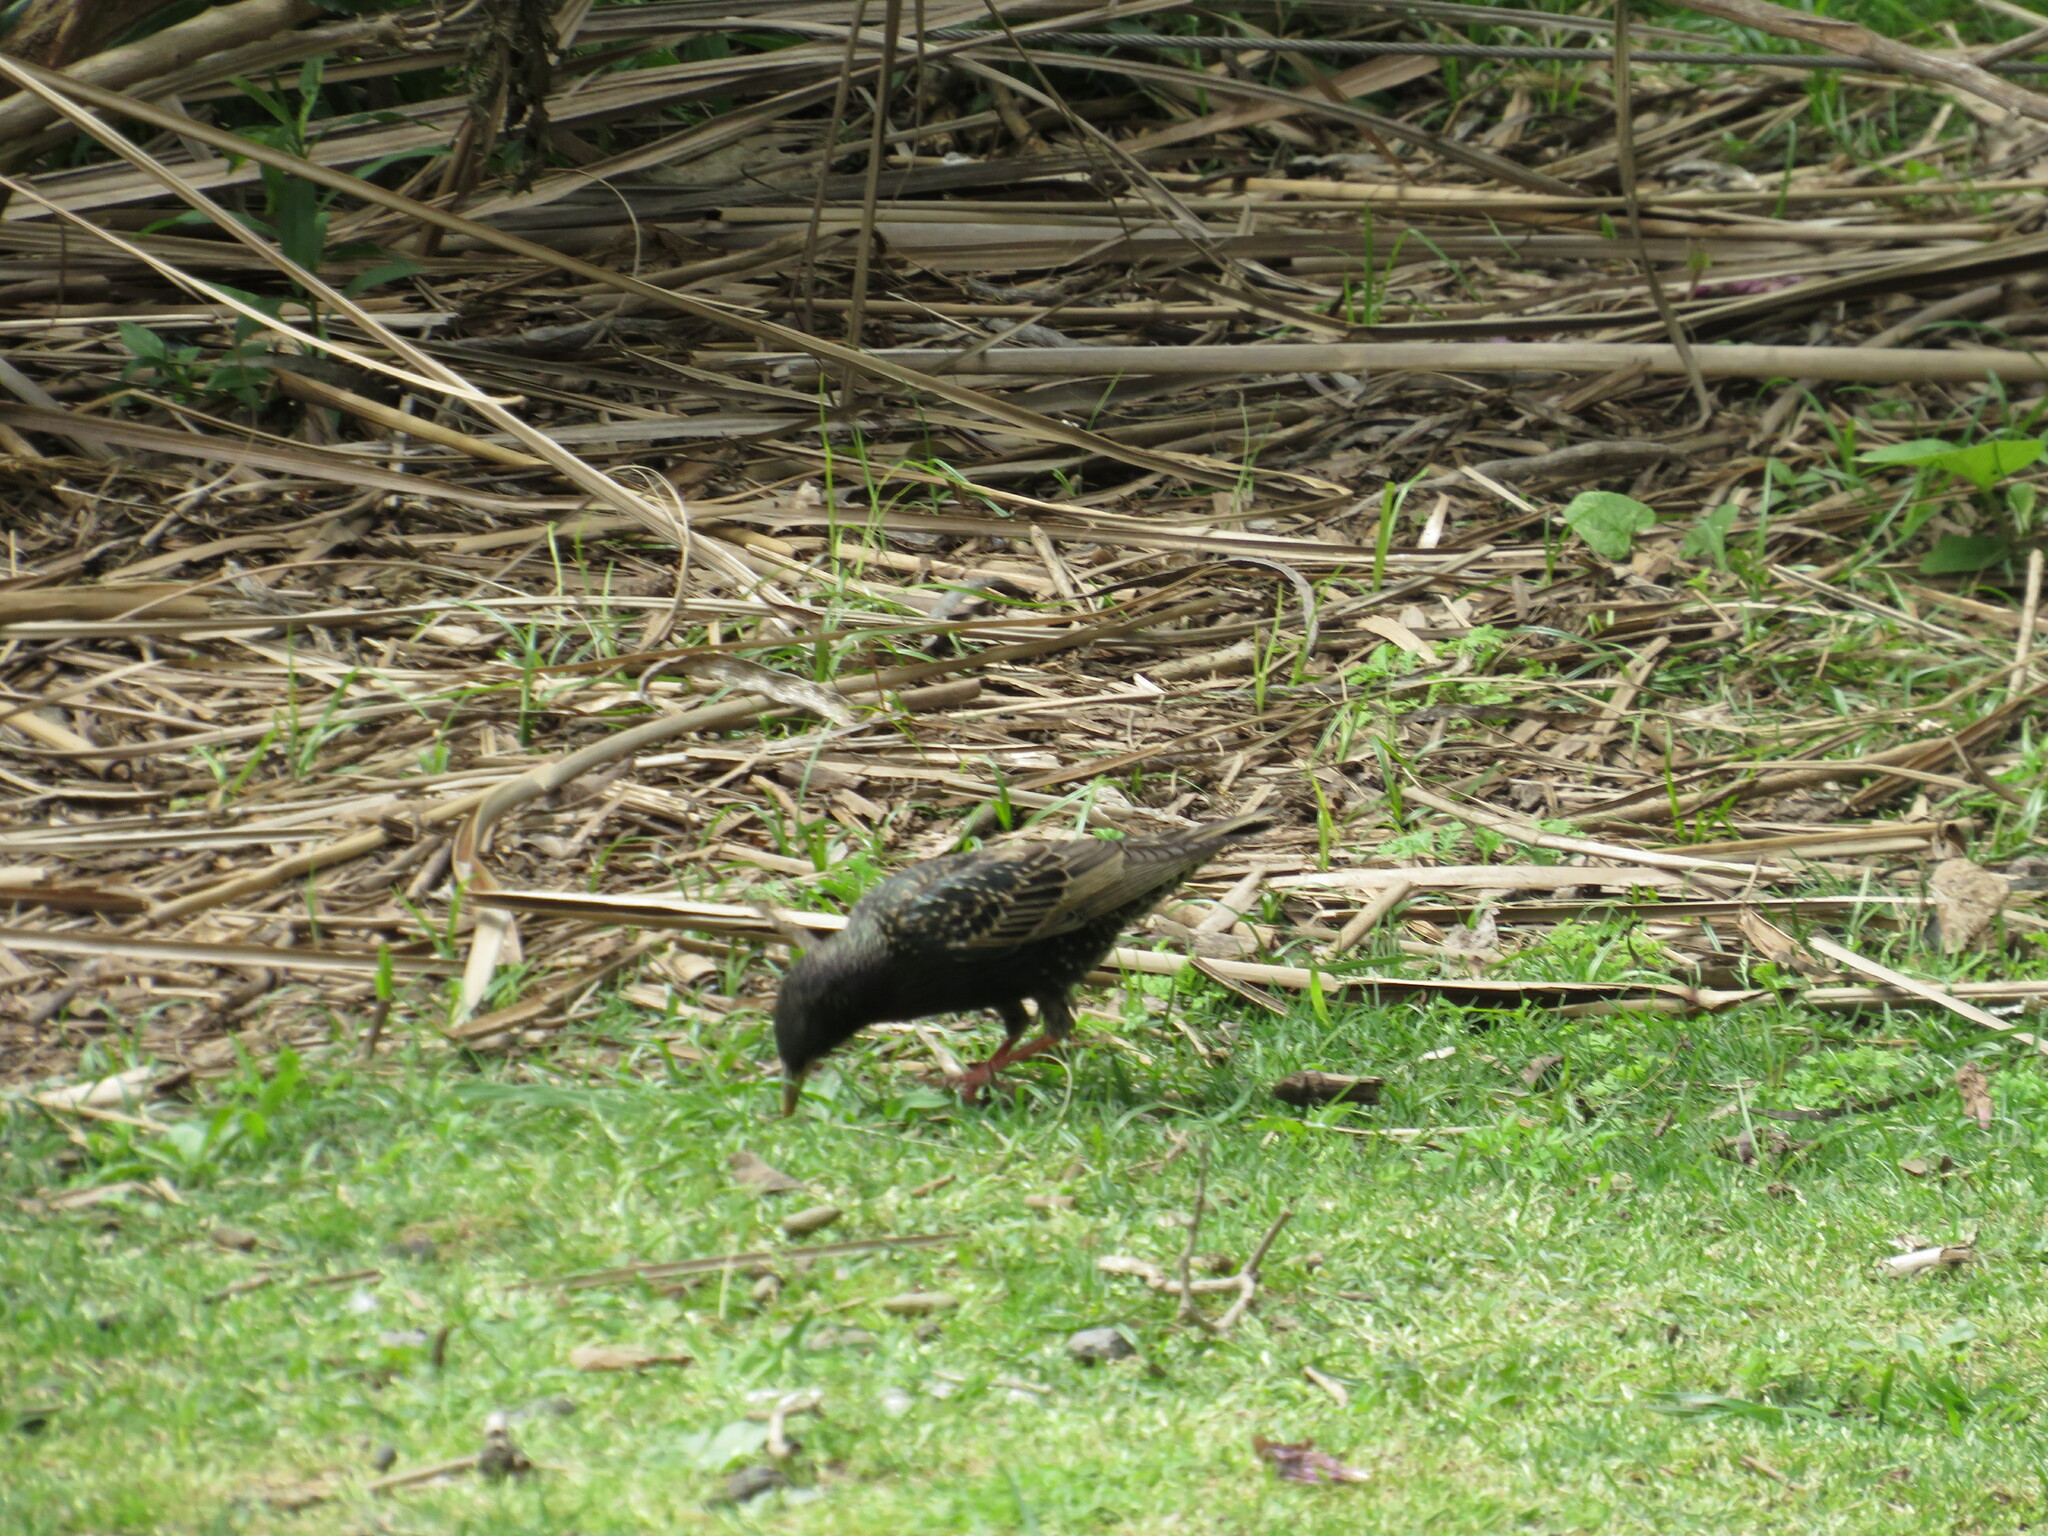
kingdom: Animalia
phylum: Chordata
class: Aves
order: Passeriformes
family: Sturnidae
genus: Sturnus
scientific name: Sturnus vulgaris
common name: Common starling
